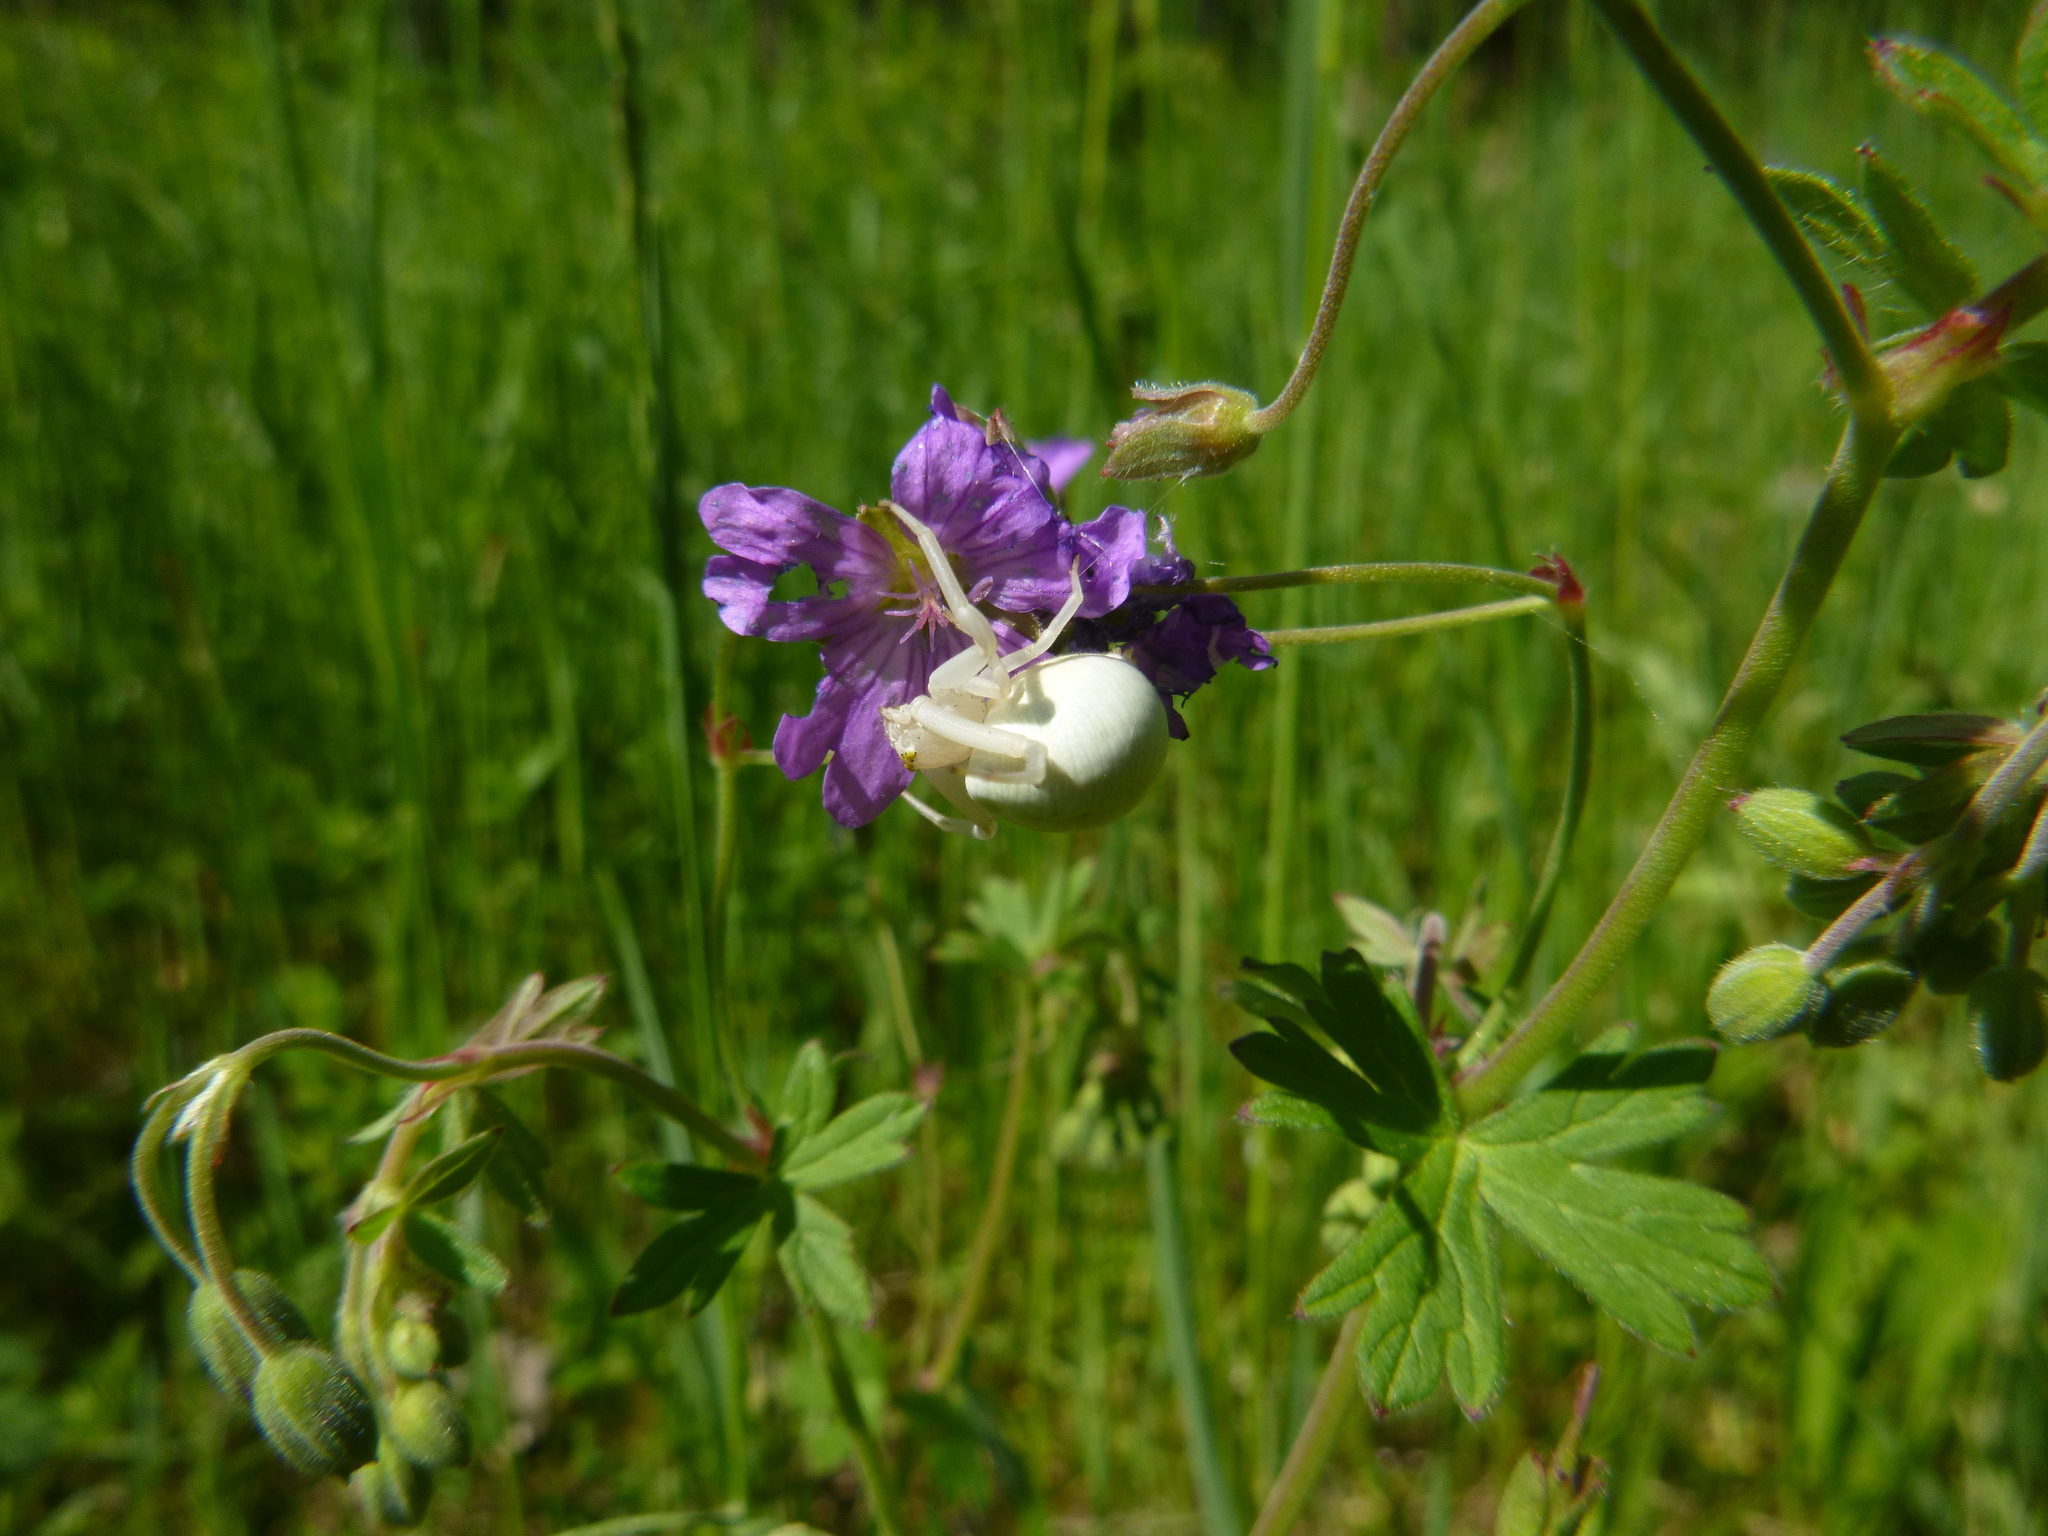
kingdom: Animalia
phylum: Arthropoda
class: Arachnida
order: Araneae
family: Thomisidae
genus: Misumena
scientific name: Misumena vatia
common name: Goldenrod crab spider
